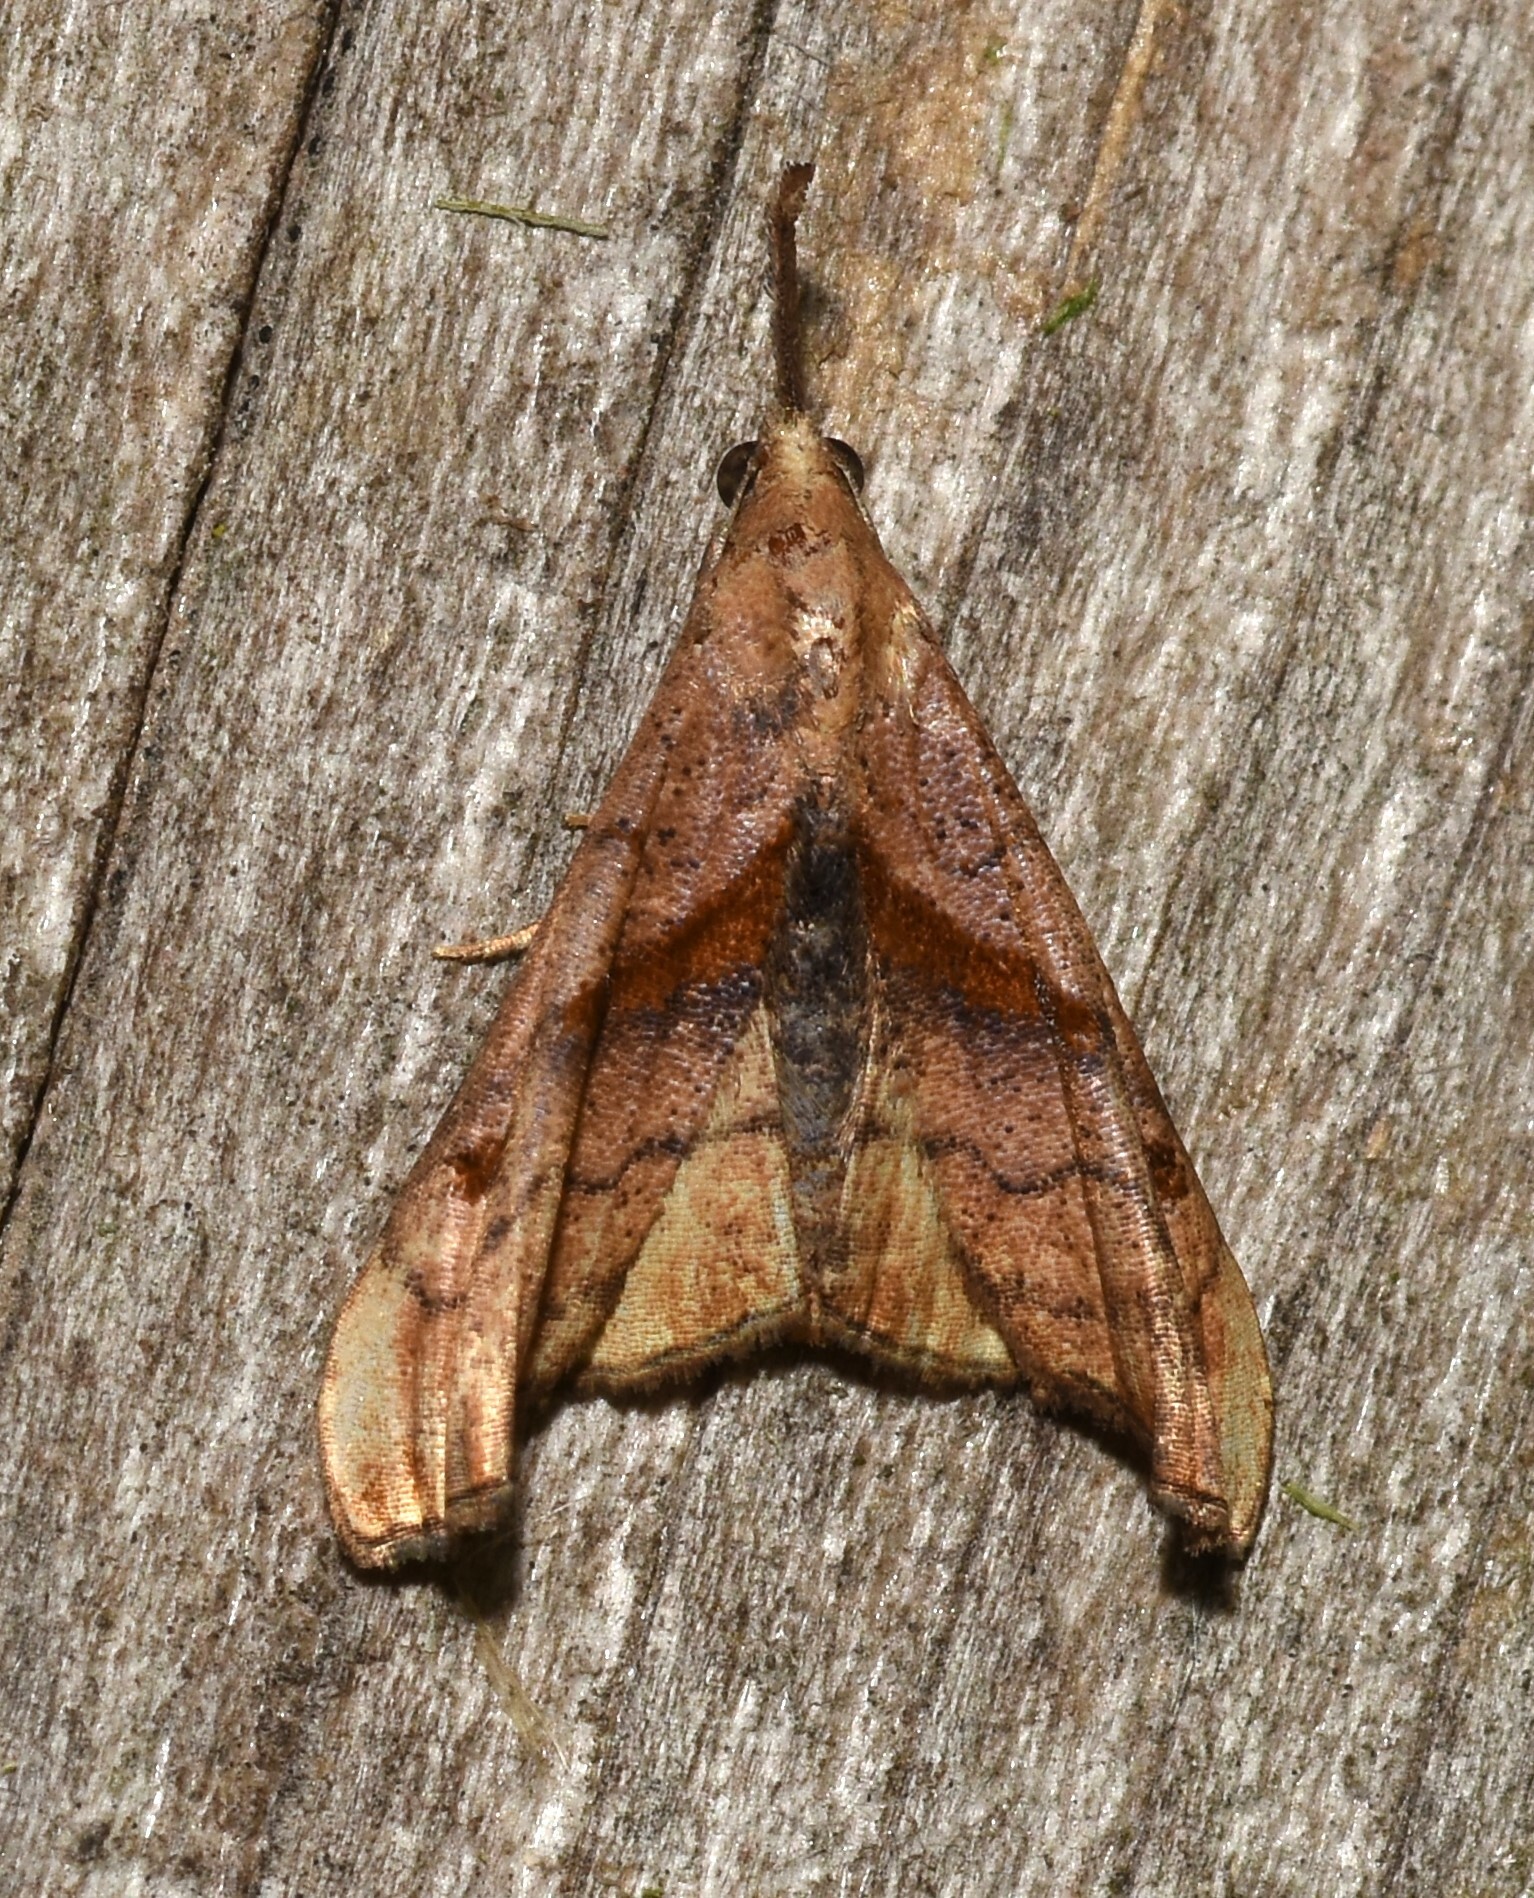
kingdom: Animalia
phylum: Arthropoda
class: Insecta
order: Lepidoptera
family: Erebidae
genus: Palthis
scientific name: Palthis angulalis
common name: Dark-spotted palthis moth
